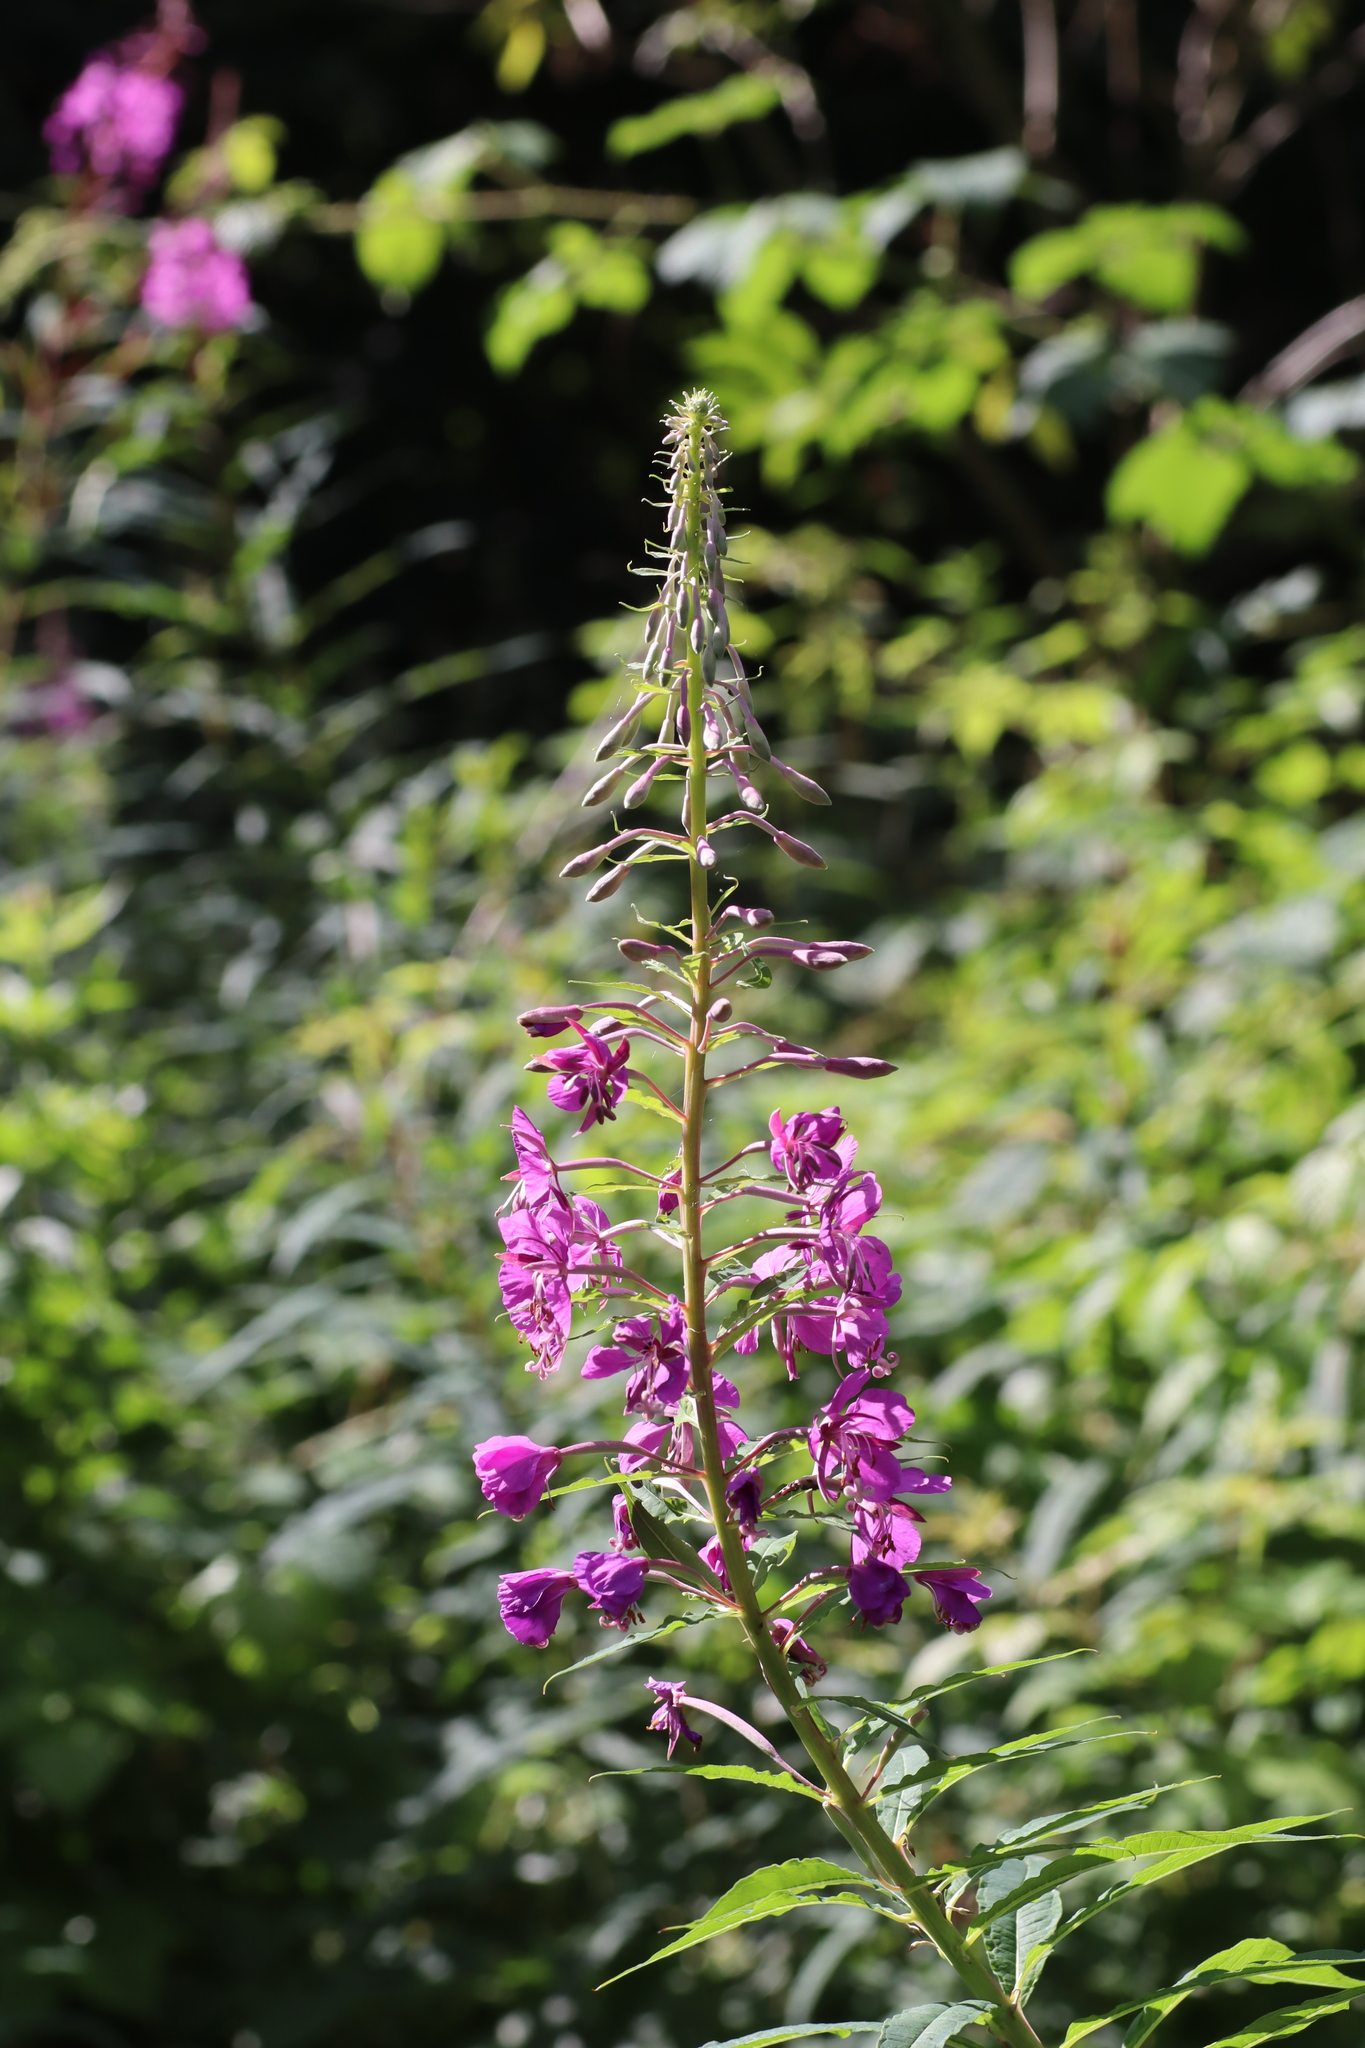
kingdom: Plantae
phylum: Tracheophyta
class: Magnoliopsida
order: Myrtales
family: Onagraceae
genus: Chamaenerion
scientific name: Chamaenerion angustifolium
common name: Fireweed
